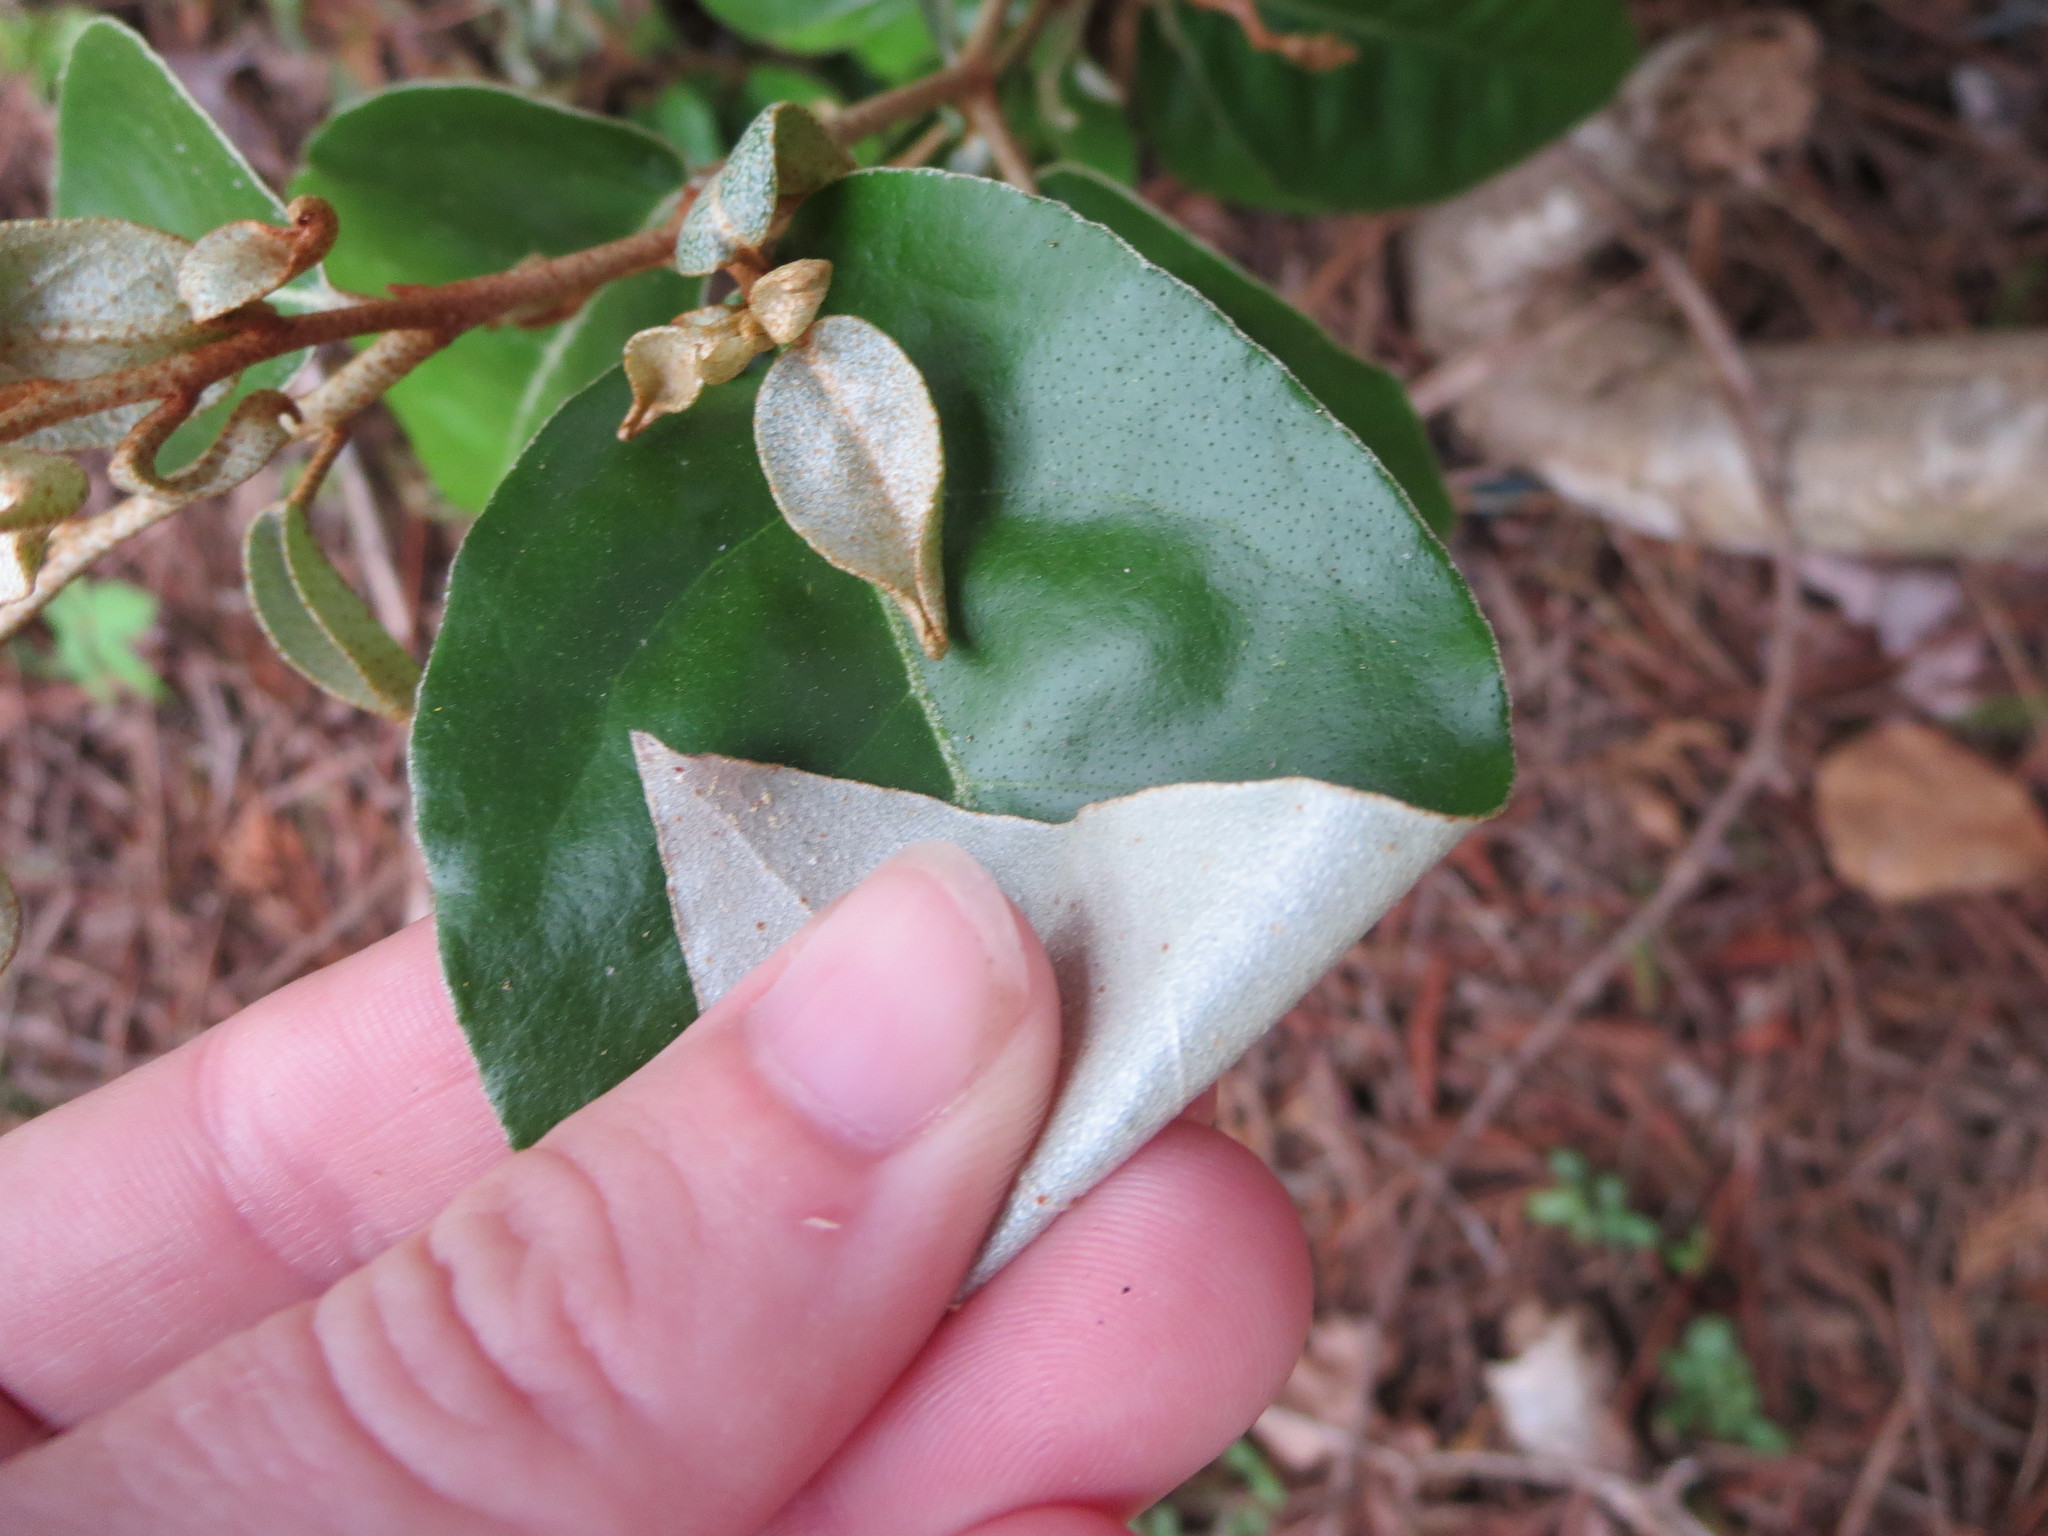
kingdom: Plantae
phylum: Tracheophyta
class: Magnoliopsida
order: Rosales
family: Elaeagnaceae
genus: Elaeagnus
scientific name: Elaeagnus pungens
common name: Spiny oleaster
